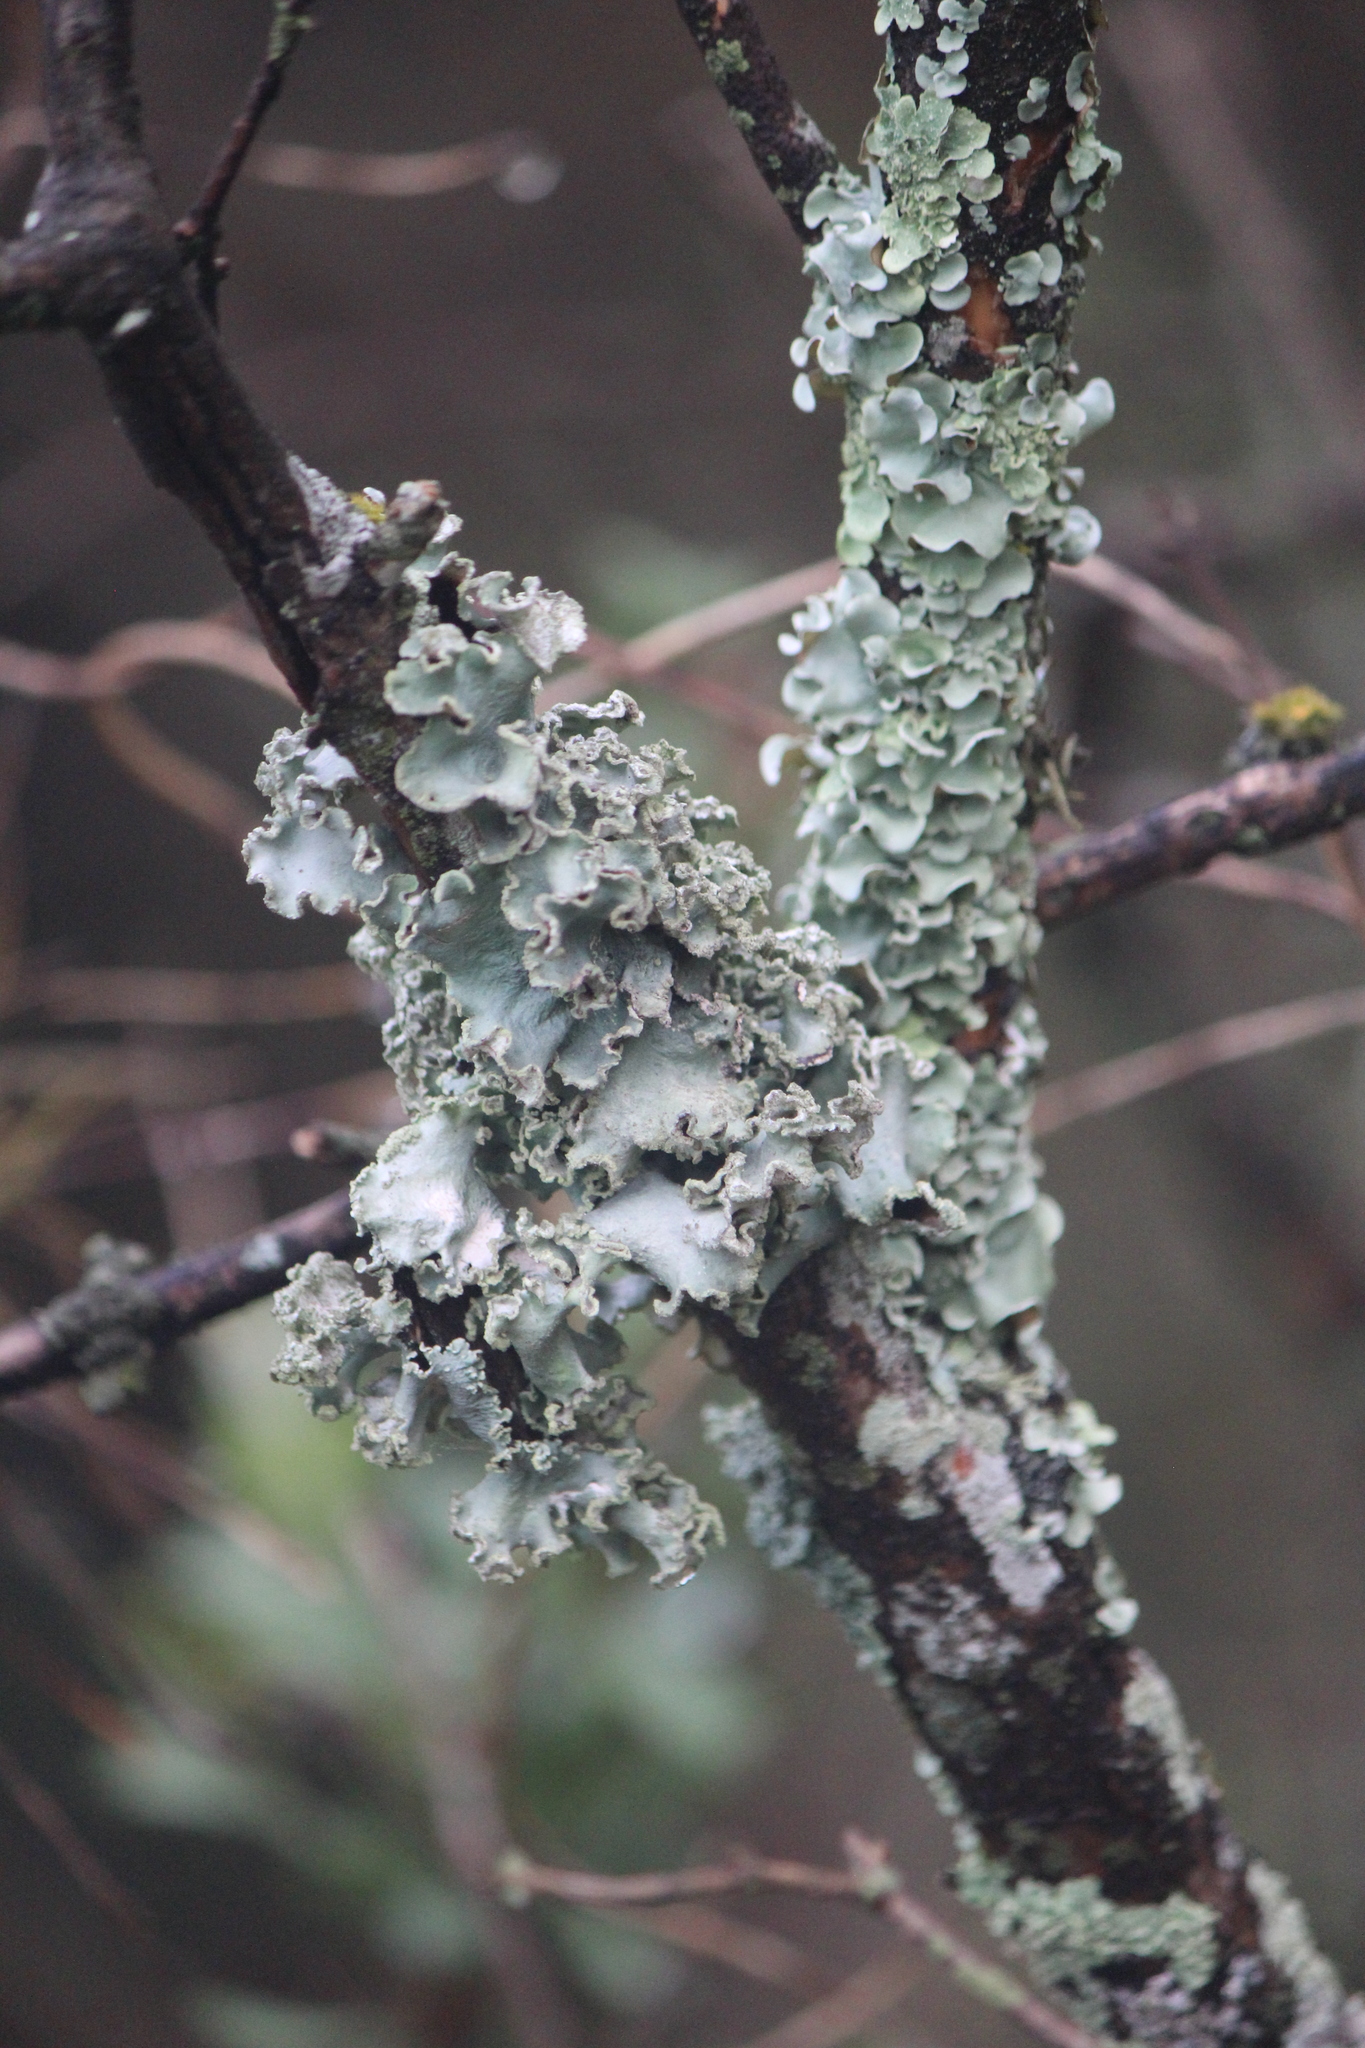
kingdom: Fungi
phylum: Ascomycota
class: Lecanoromycetes
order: Lecanorales
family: Parmeliaceae
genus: Parmotrema
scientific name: Parmotrema austrosinense
